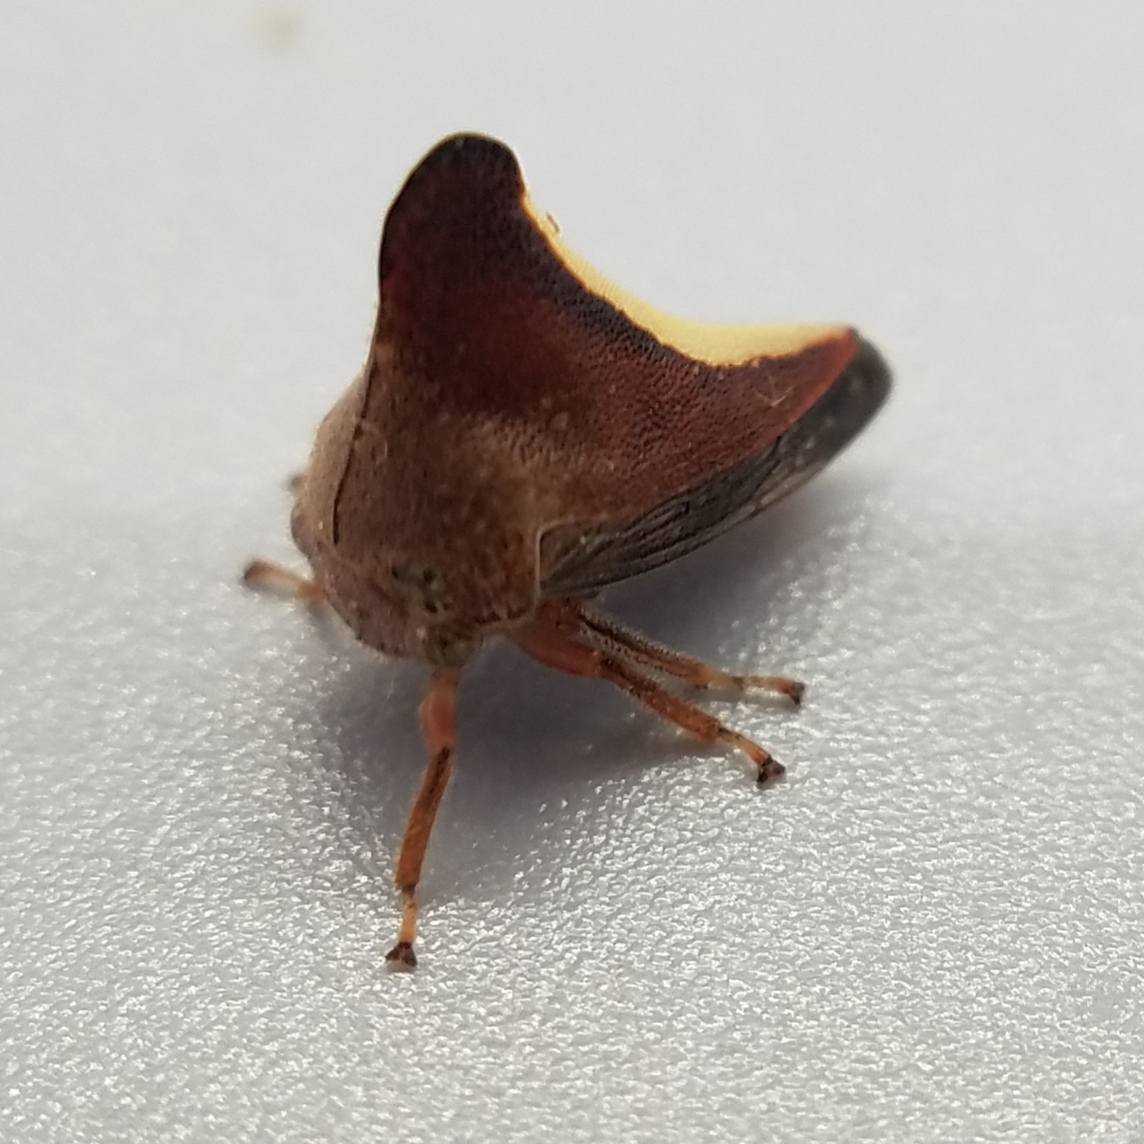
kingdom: Animalia
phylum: Arthropoda
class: Insecta
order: Hemiptera
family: Membracidae
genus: Glossonotus
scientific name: Glossonotus univittatus
